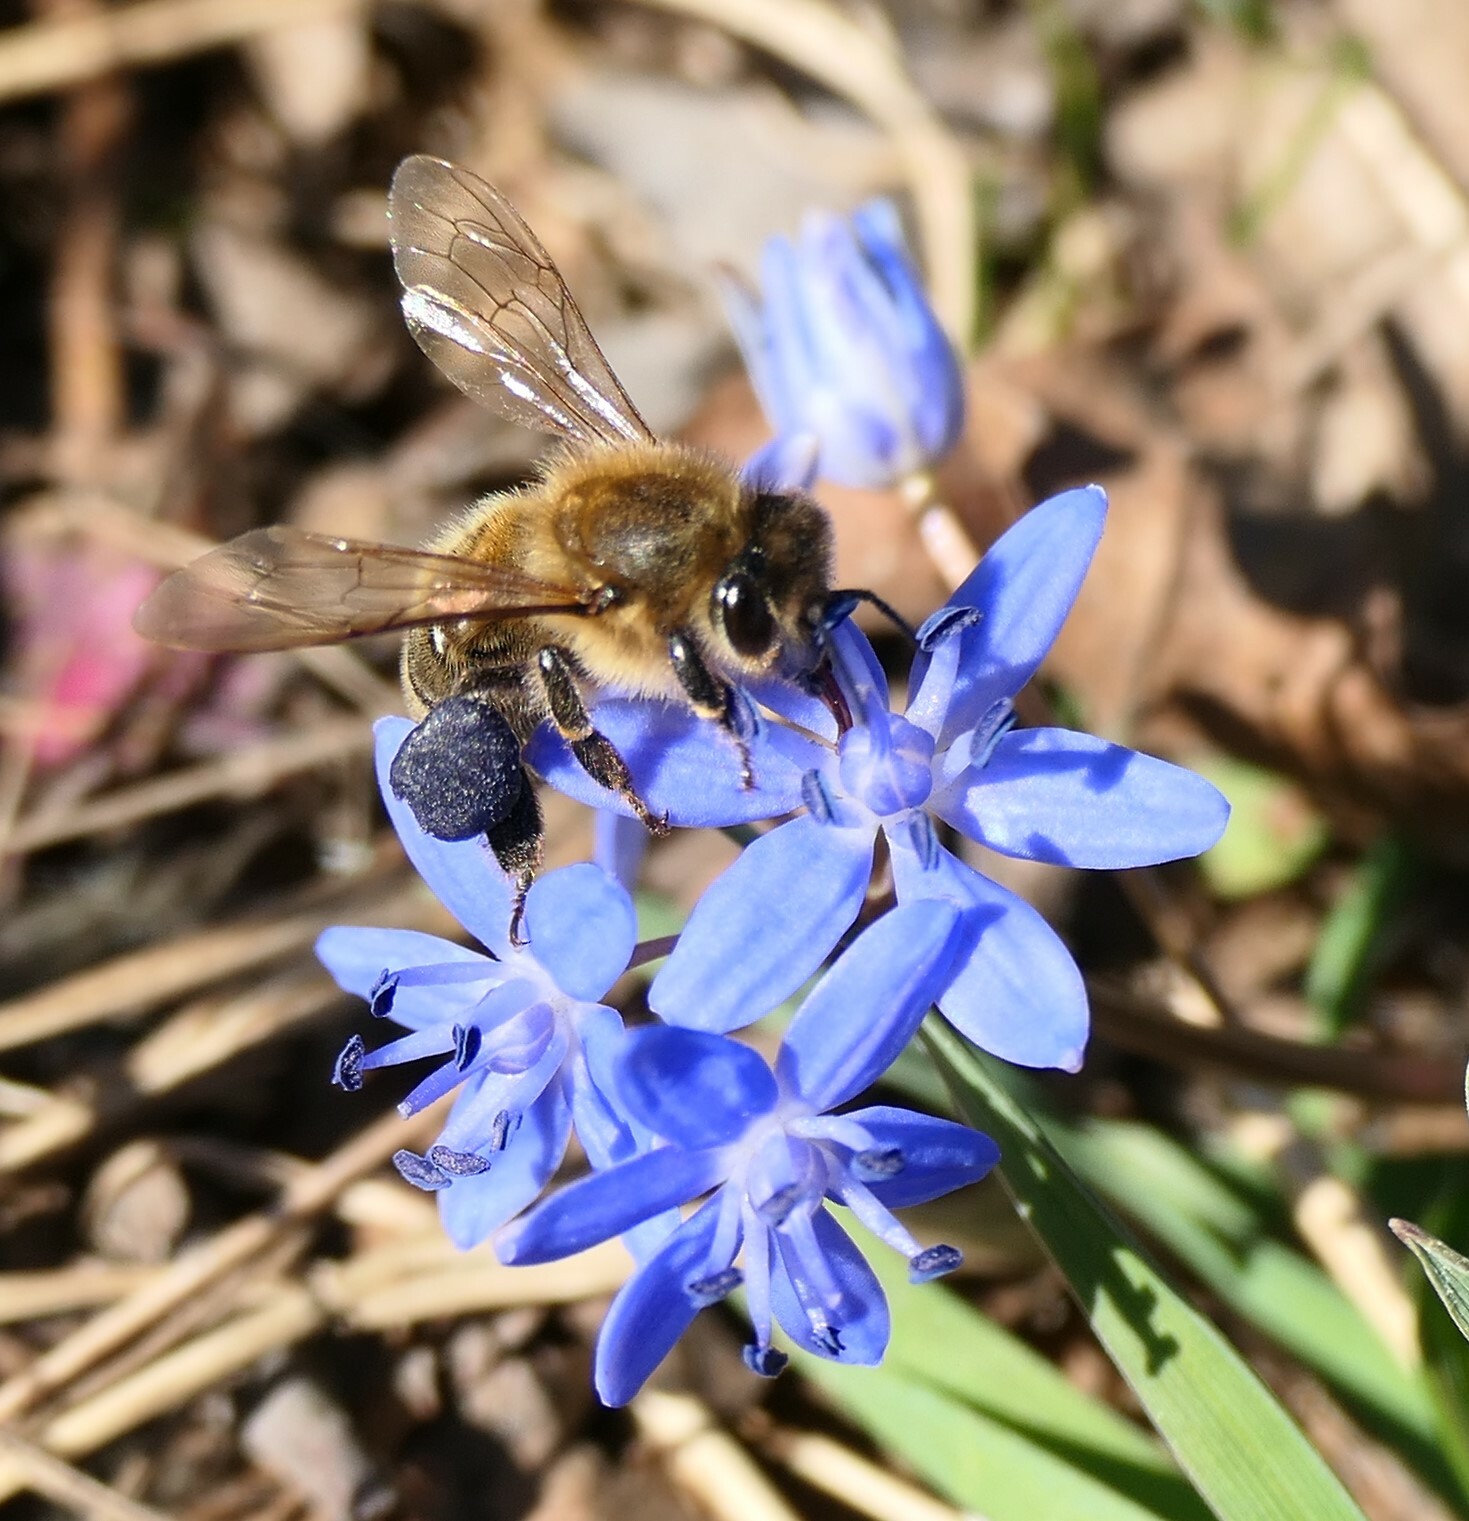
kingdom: Animalia
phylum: Arthropoda
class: Insecta
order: Hymenoptera
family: Apidae
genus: Apis
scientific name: Apis mellifera
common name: Honey bee
